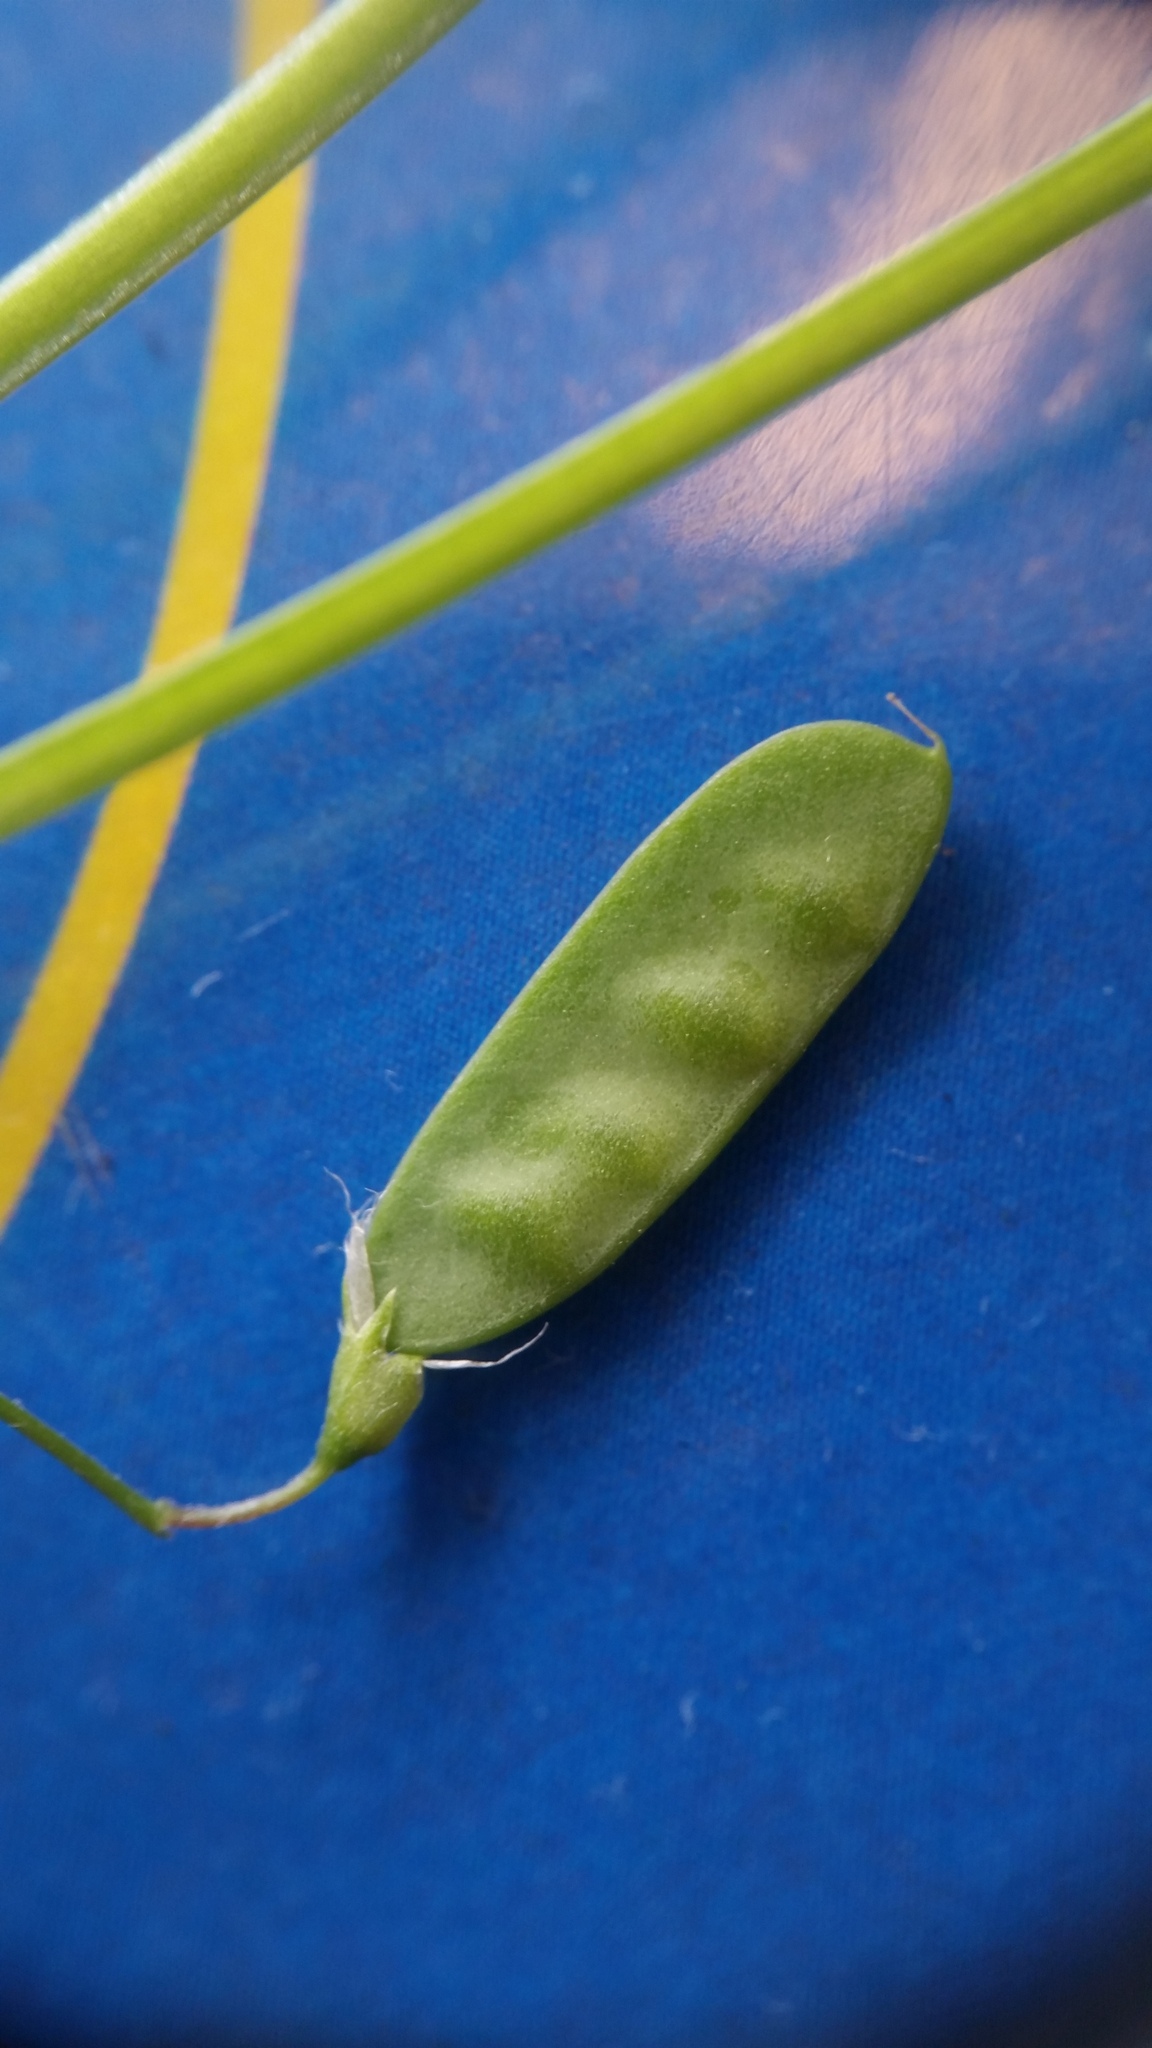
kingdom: Plantae
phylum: Tracheophyta
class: Magnoliopsida
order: Fabales
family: Fabaceae
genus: Vicia
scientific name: Vicia tetrasperma
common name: Smooth tare
